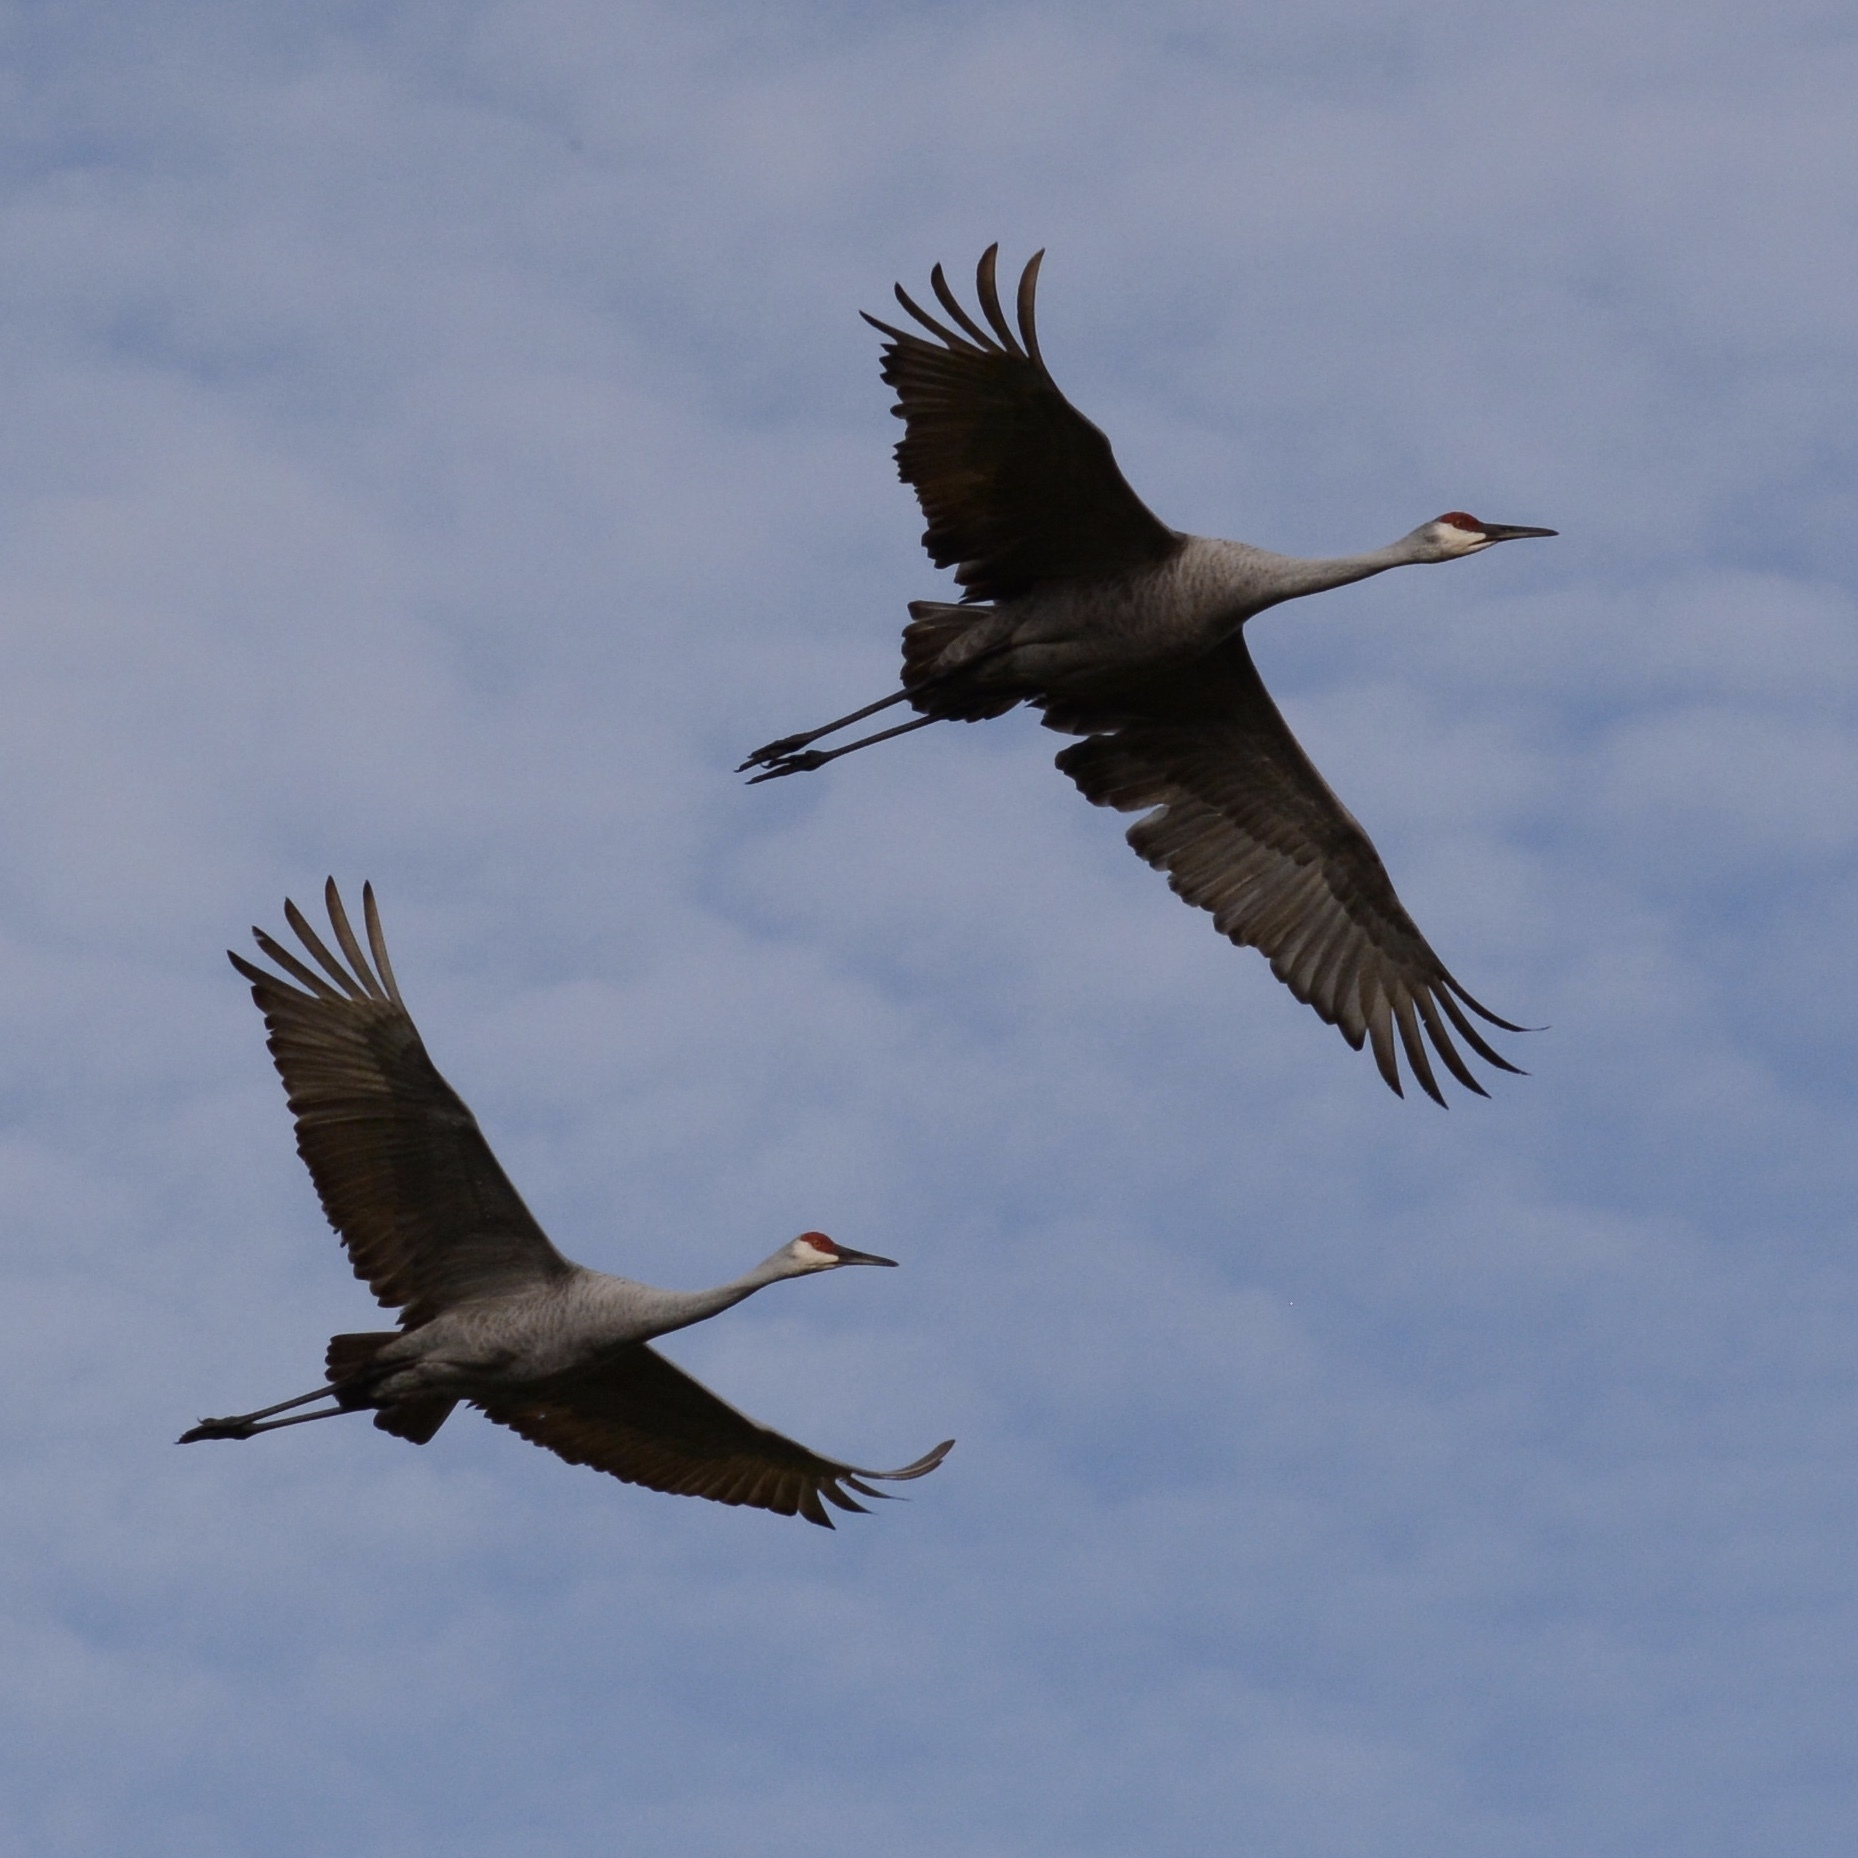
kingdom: Animalia
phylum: Chordata
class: Aves
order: Gruiformes
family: Gruidae
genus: Grus
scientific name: Grus canadensis
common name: Sandhill crane
